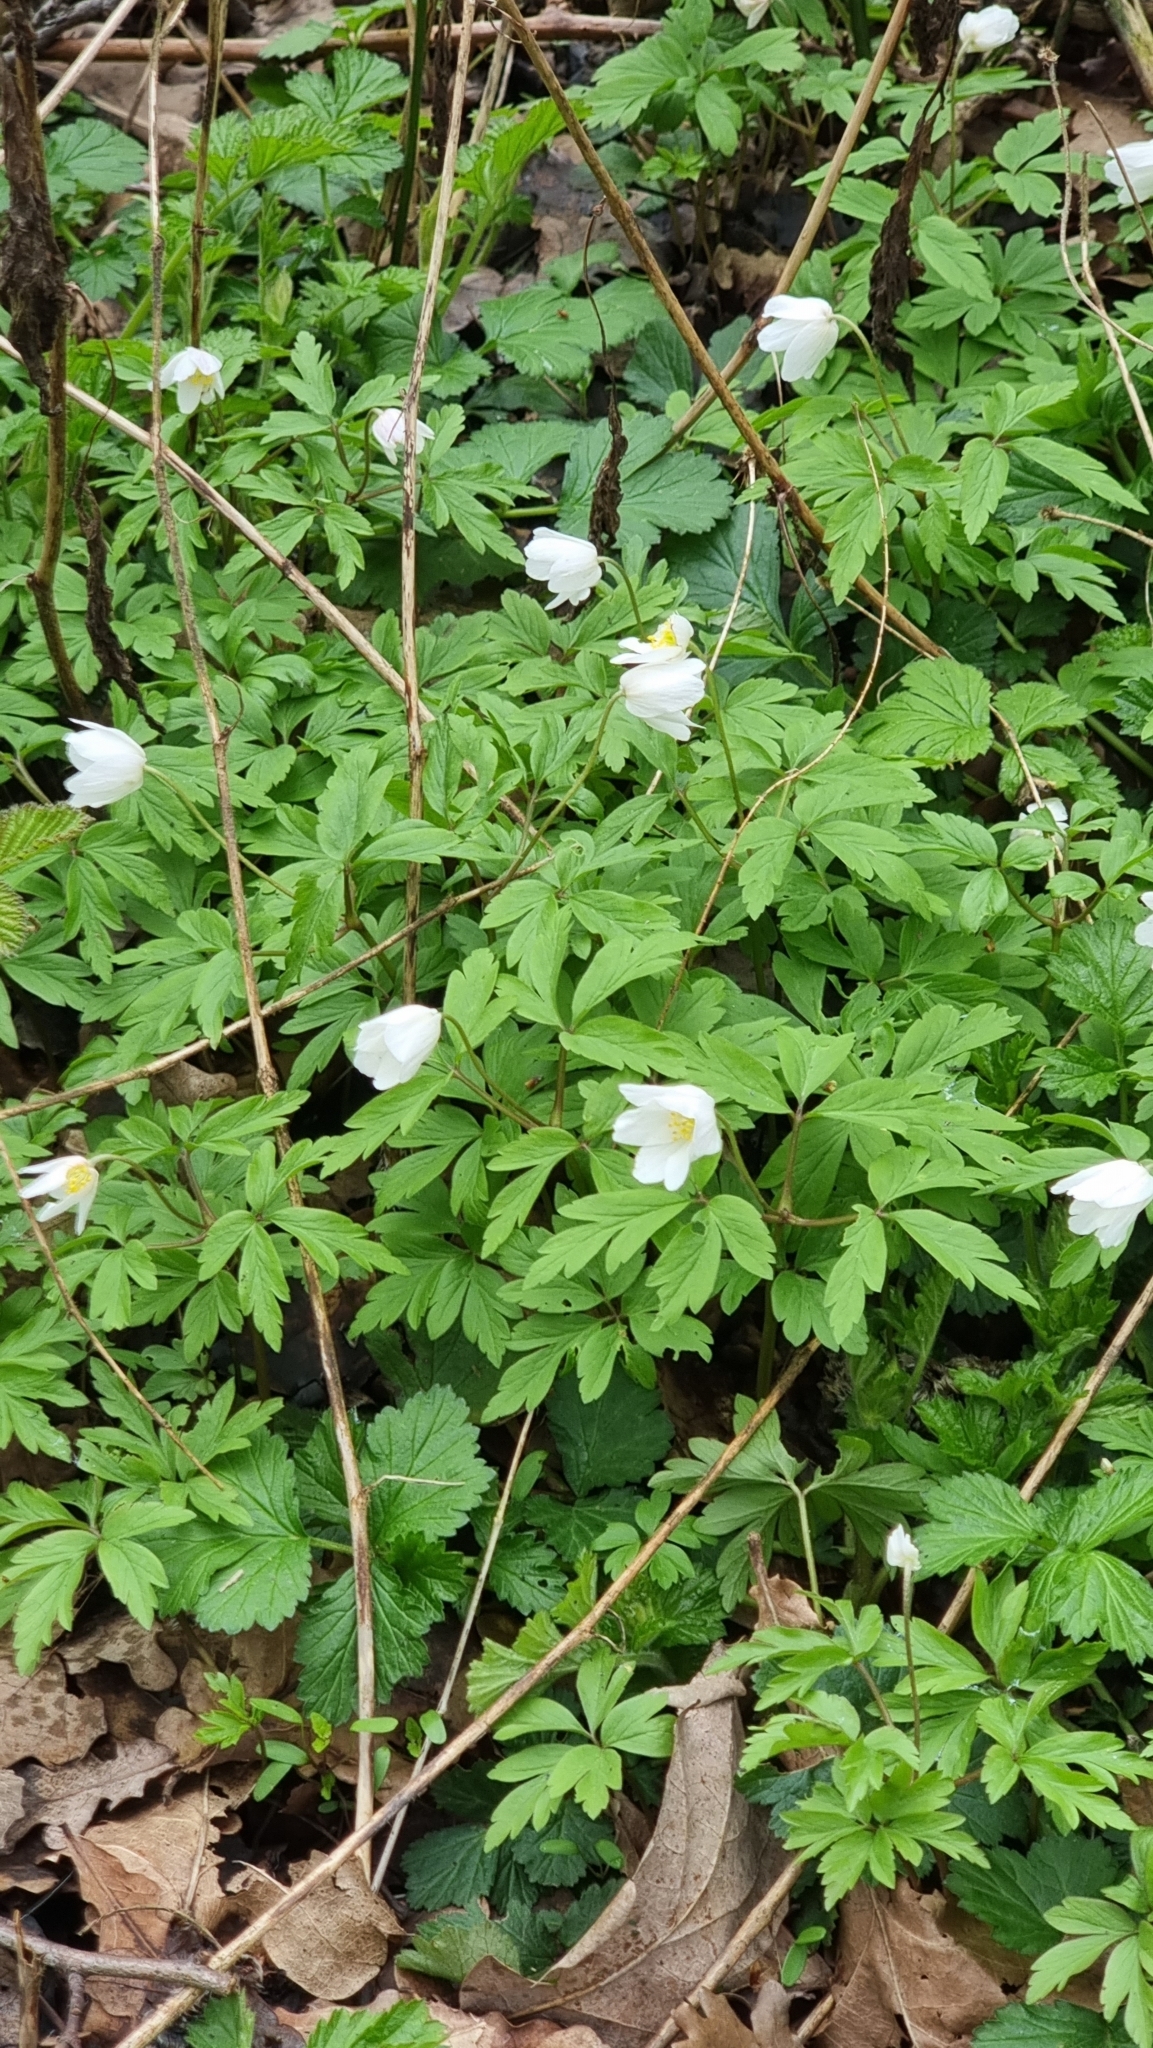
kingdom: Plantae
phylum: Tracheophyta
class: Magnoliopsida
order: Ranunculales
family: Ranunculaceae
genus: Anemone
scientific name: Anemone nemorosa
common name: Wood anemone
